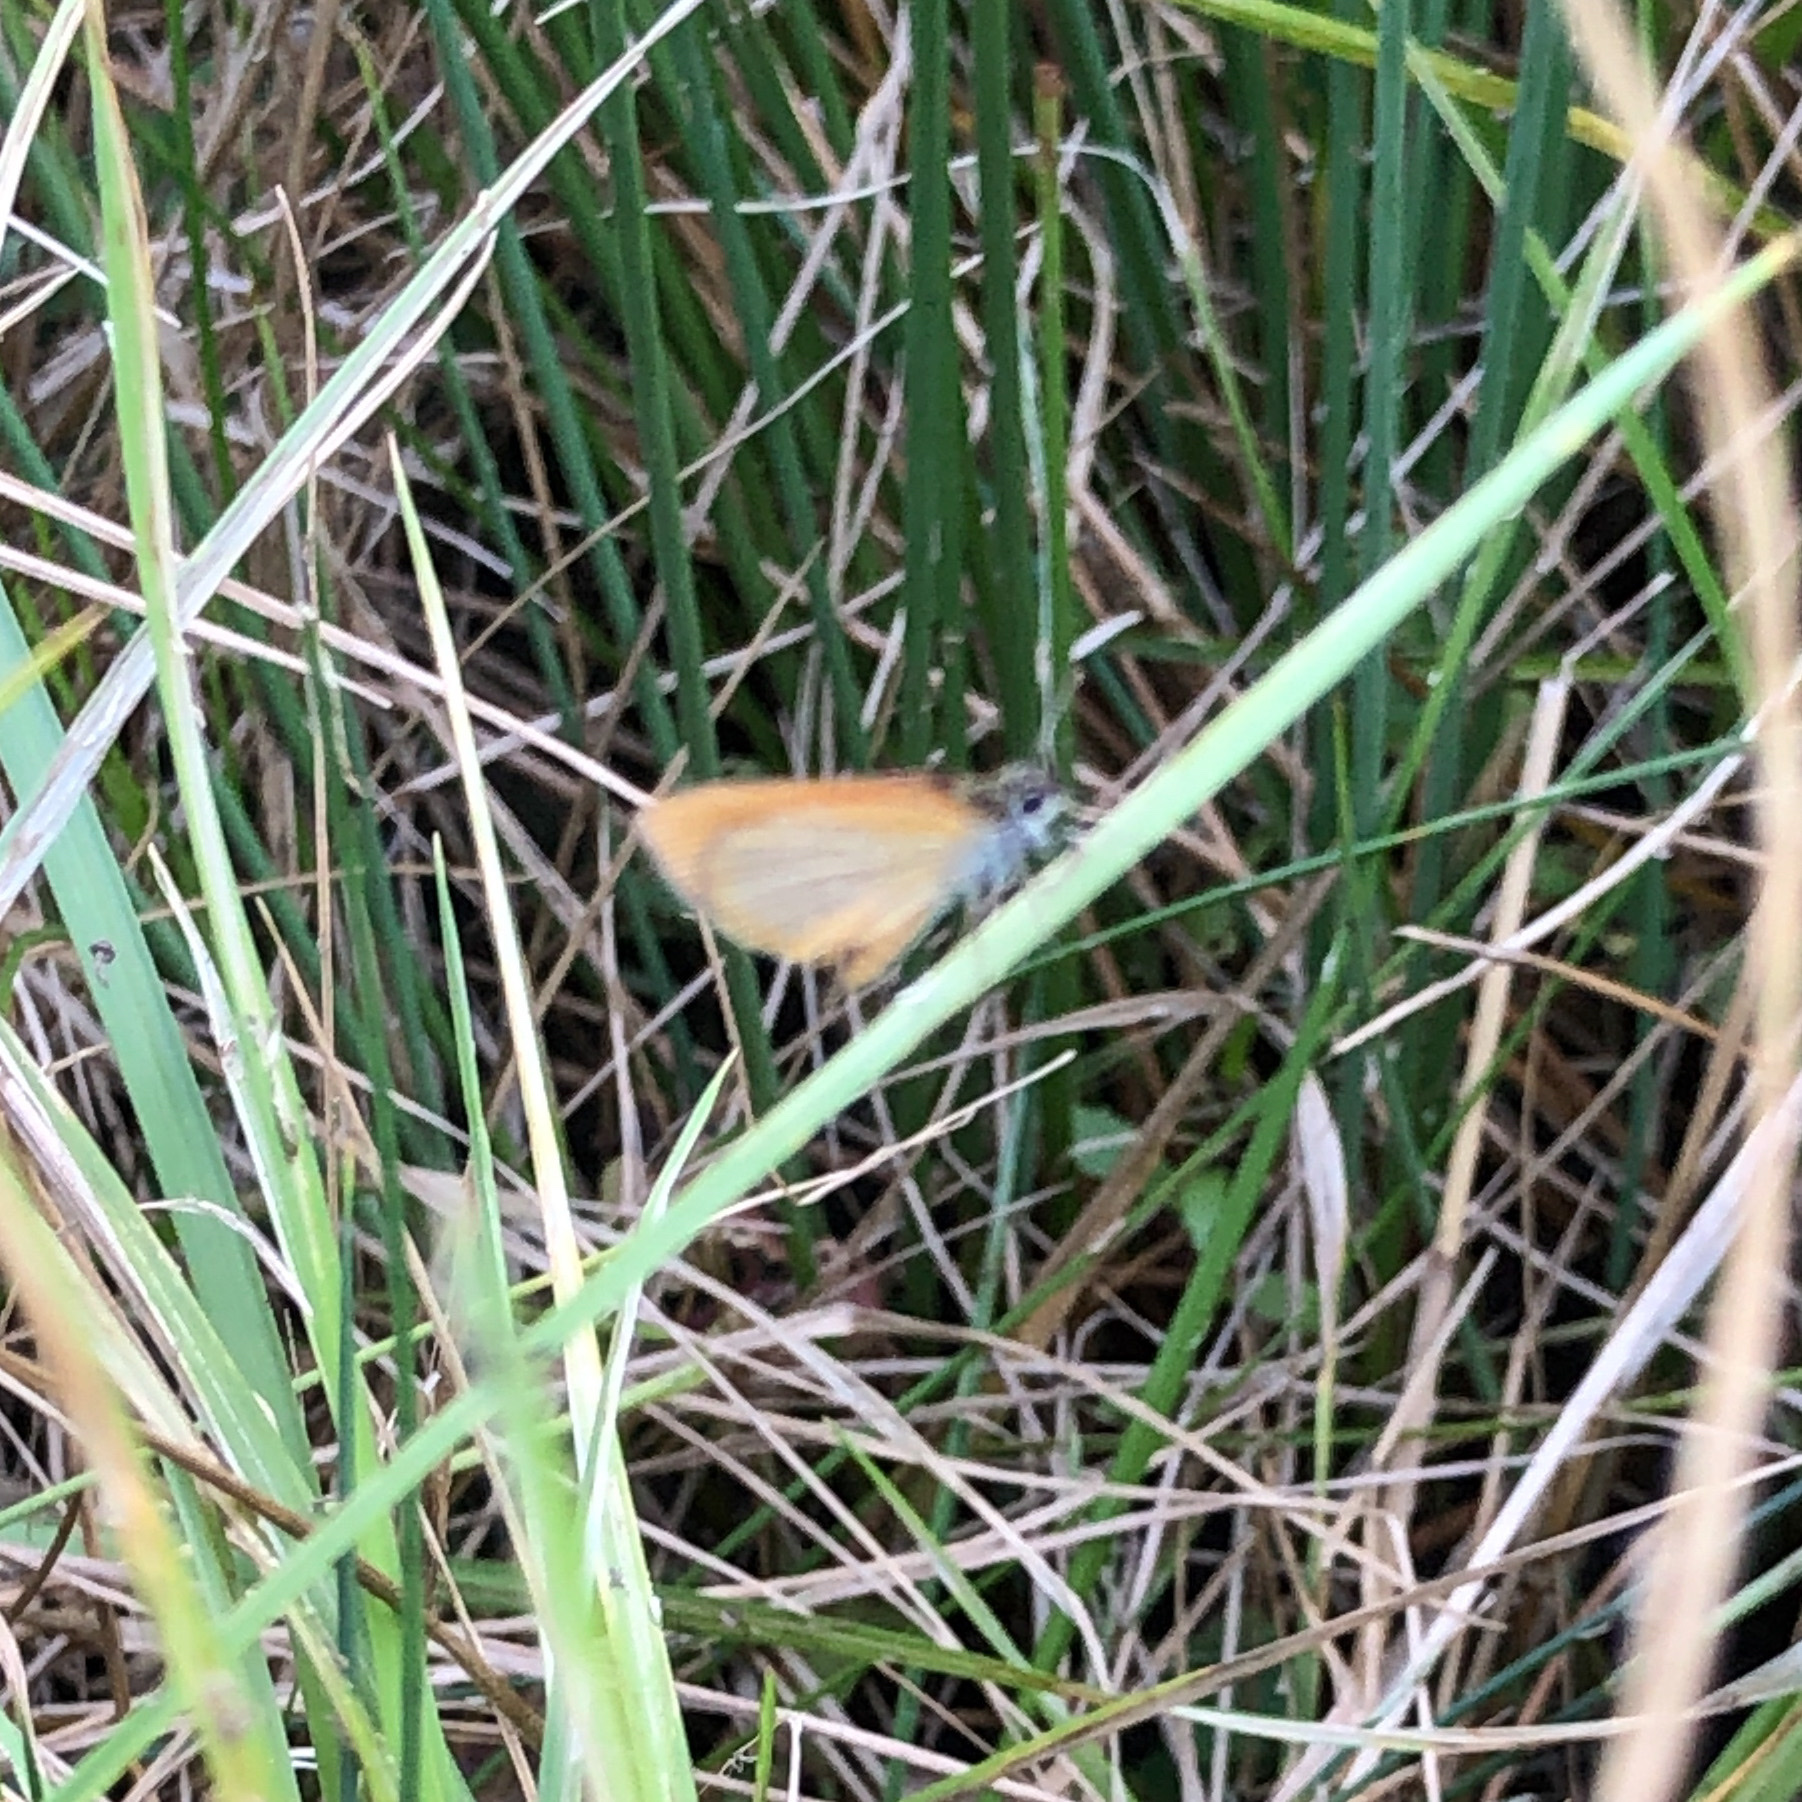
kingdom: Animalia
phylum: Arthropoda
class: Insecta
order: Lepidoptera
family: Hesperiidae
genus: Ancyloxypha
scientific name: Ancyloxypha numitor
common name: Least skipper
